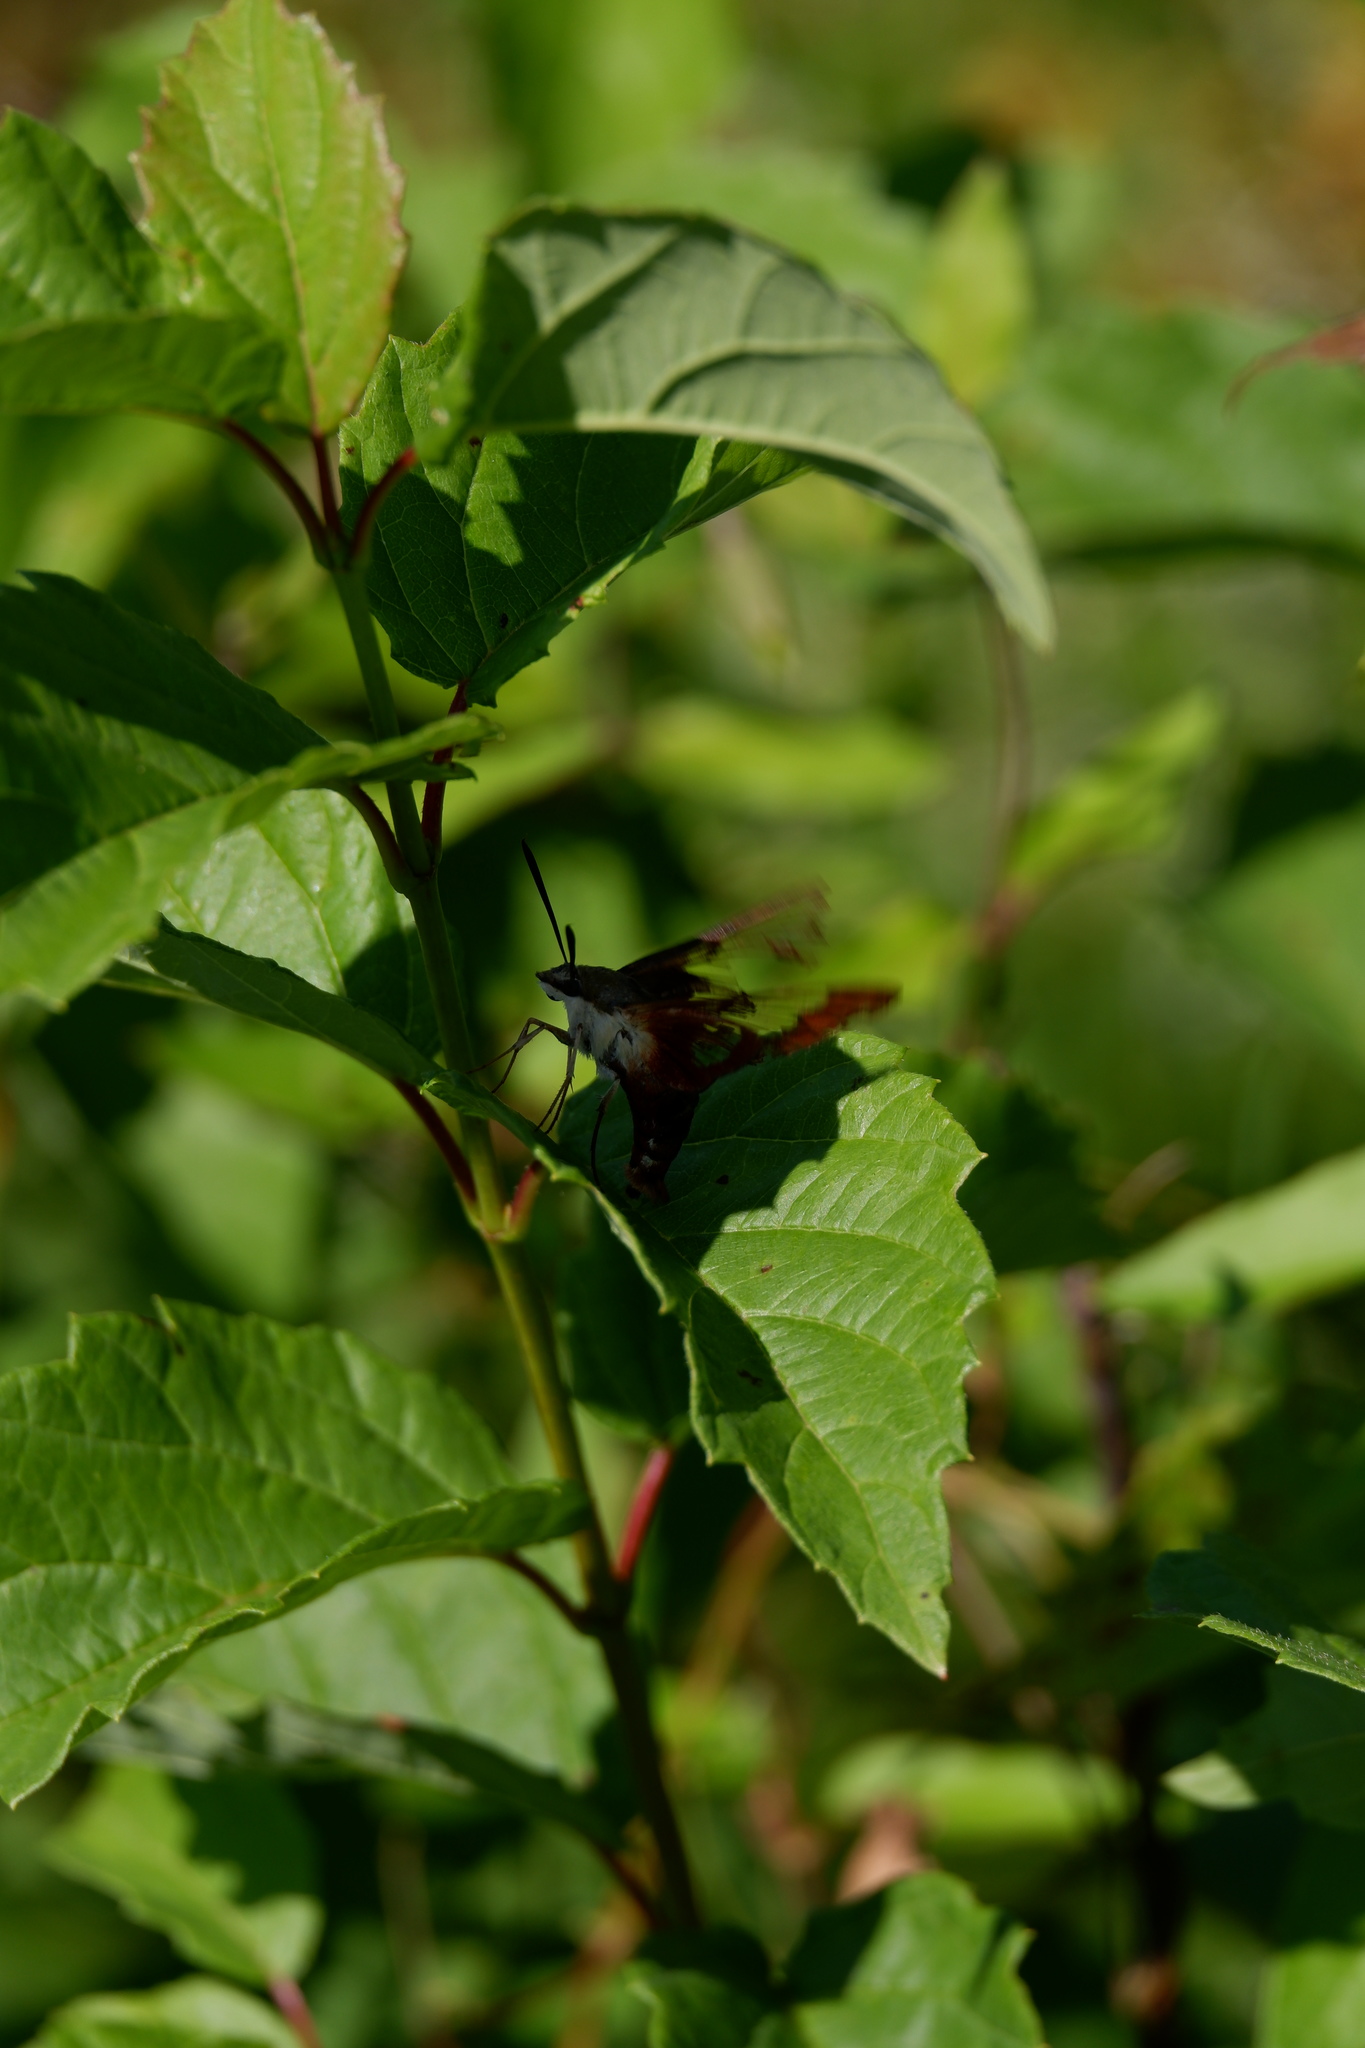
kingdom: Animalia
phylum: Arthropoda
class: Insecta
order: Lepidoptera
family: Sphingidae
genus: Hemaris
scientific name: Hemaris thysbe
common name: Common clear-wing
